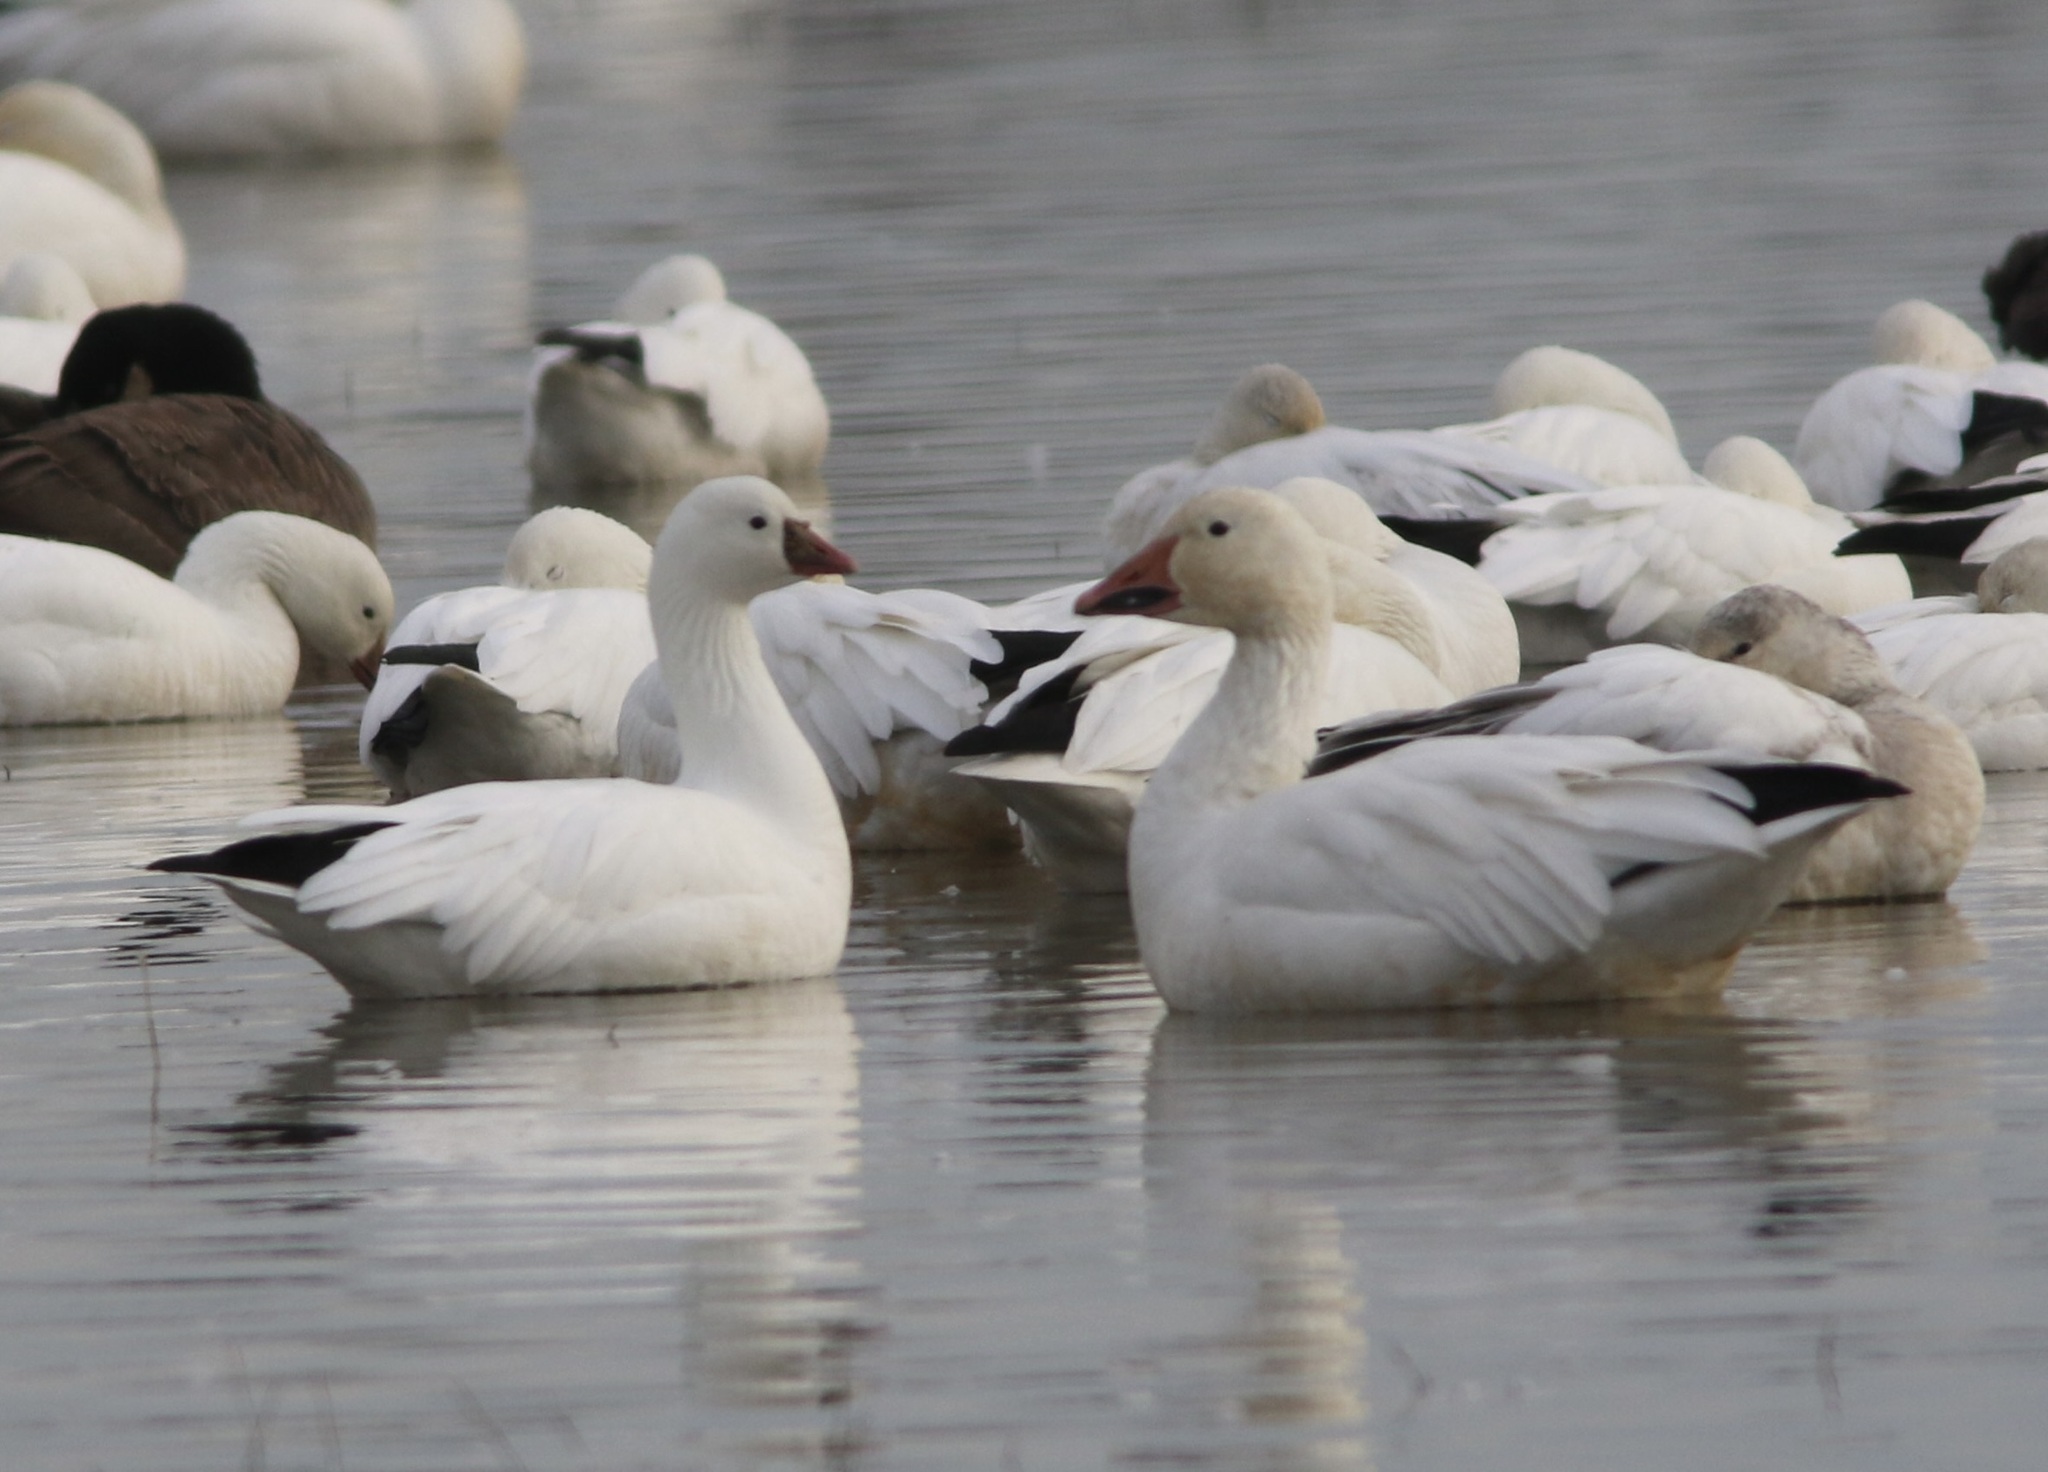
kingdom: Animalia
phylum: Chordata
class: Aves
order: Anseriformes
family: Anatidae
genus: Anser
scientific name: Anser rossii
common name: Ross's goose
